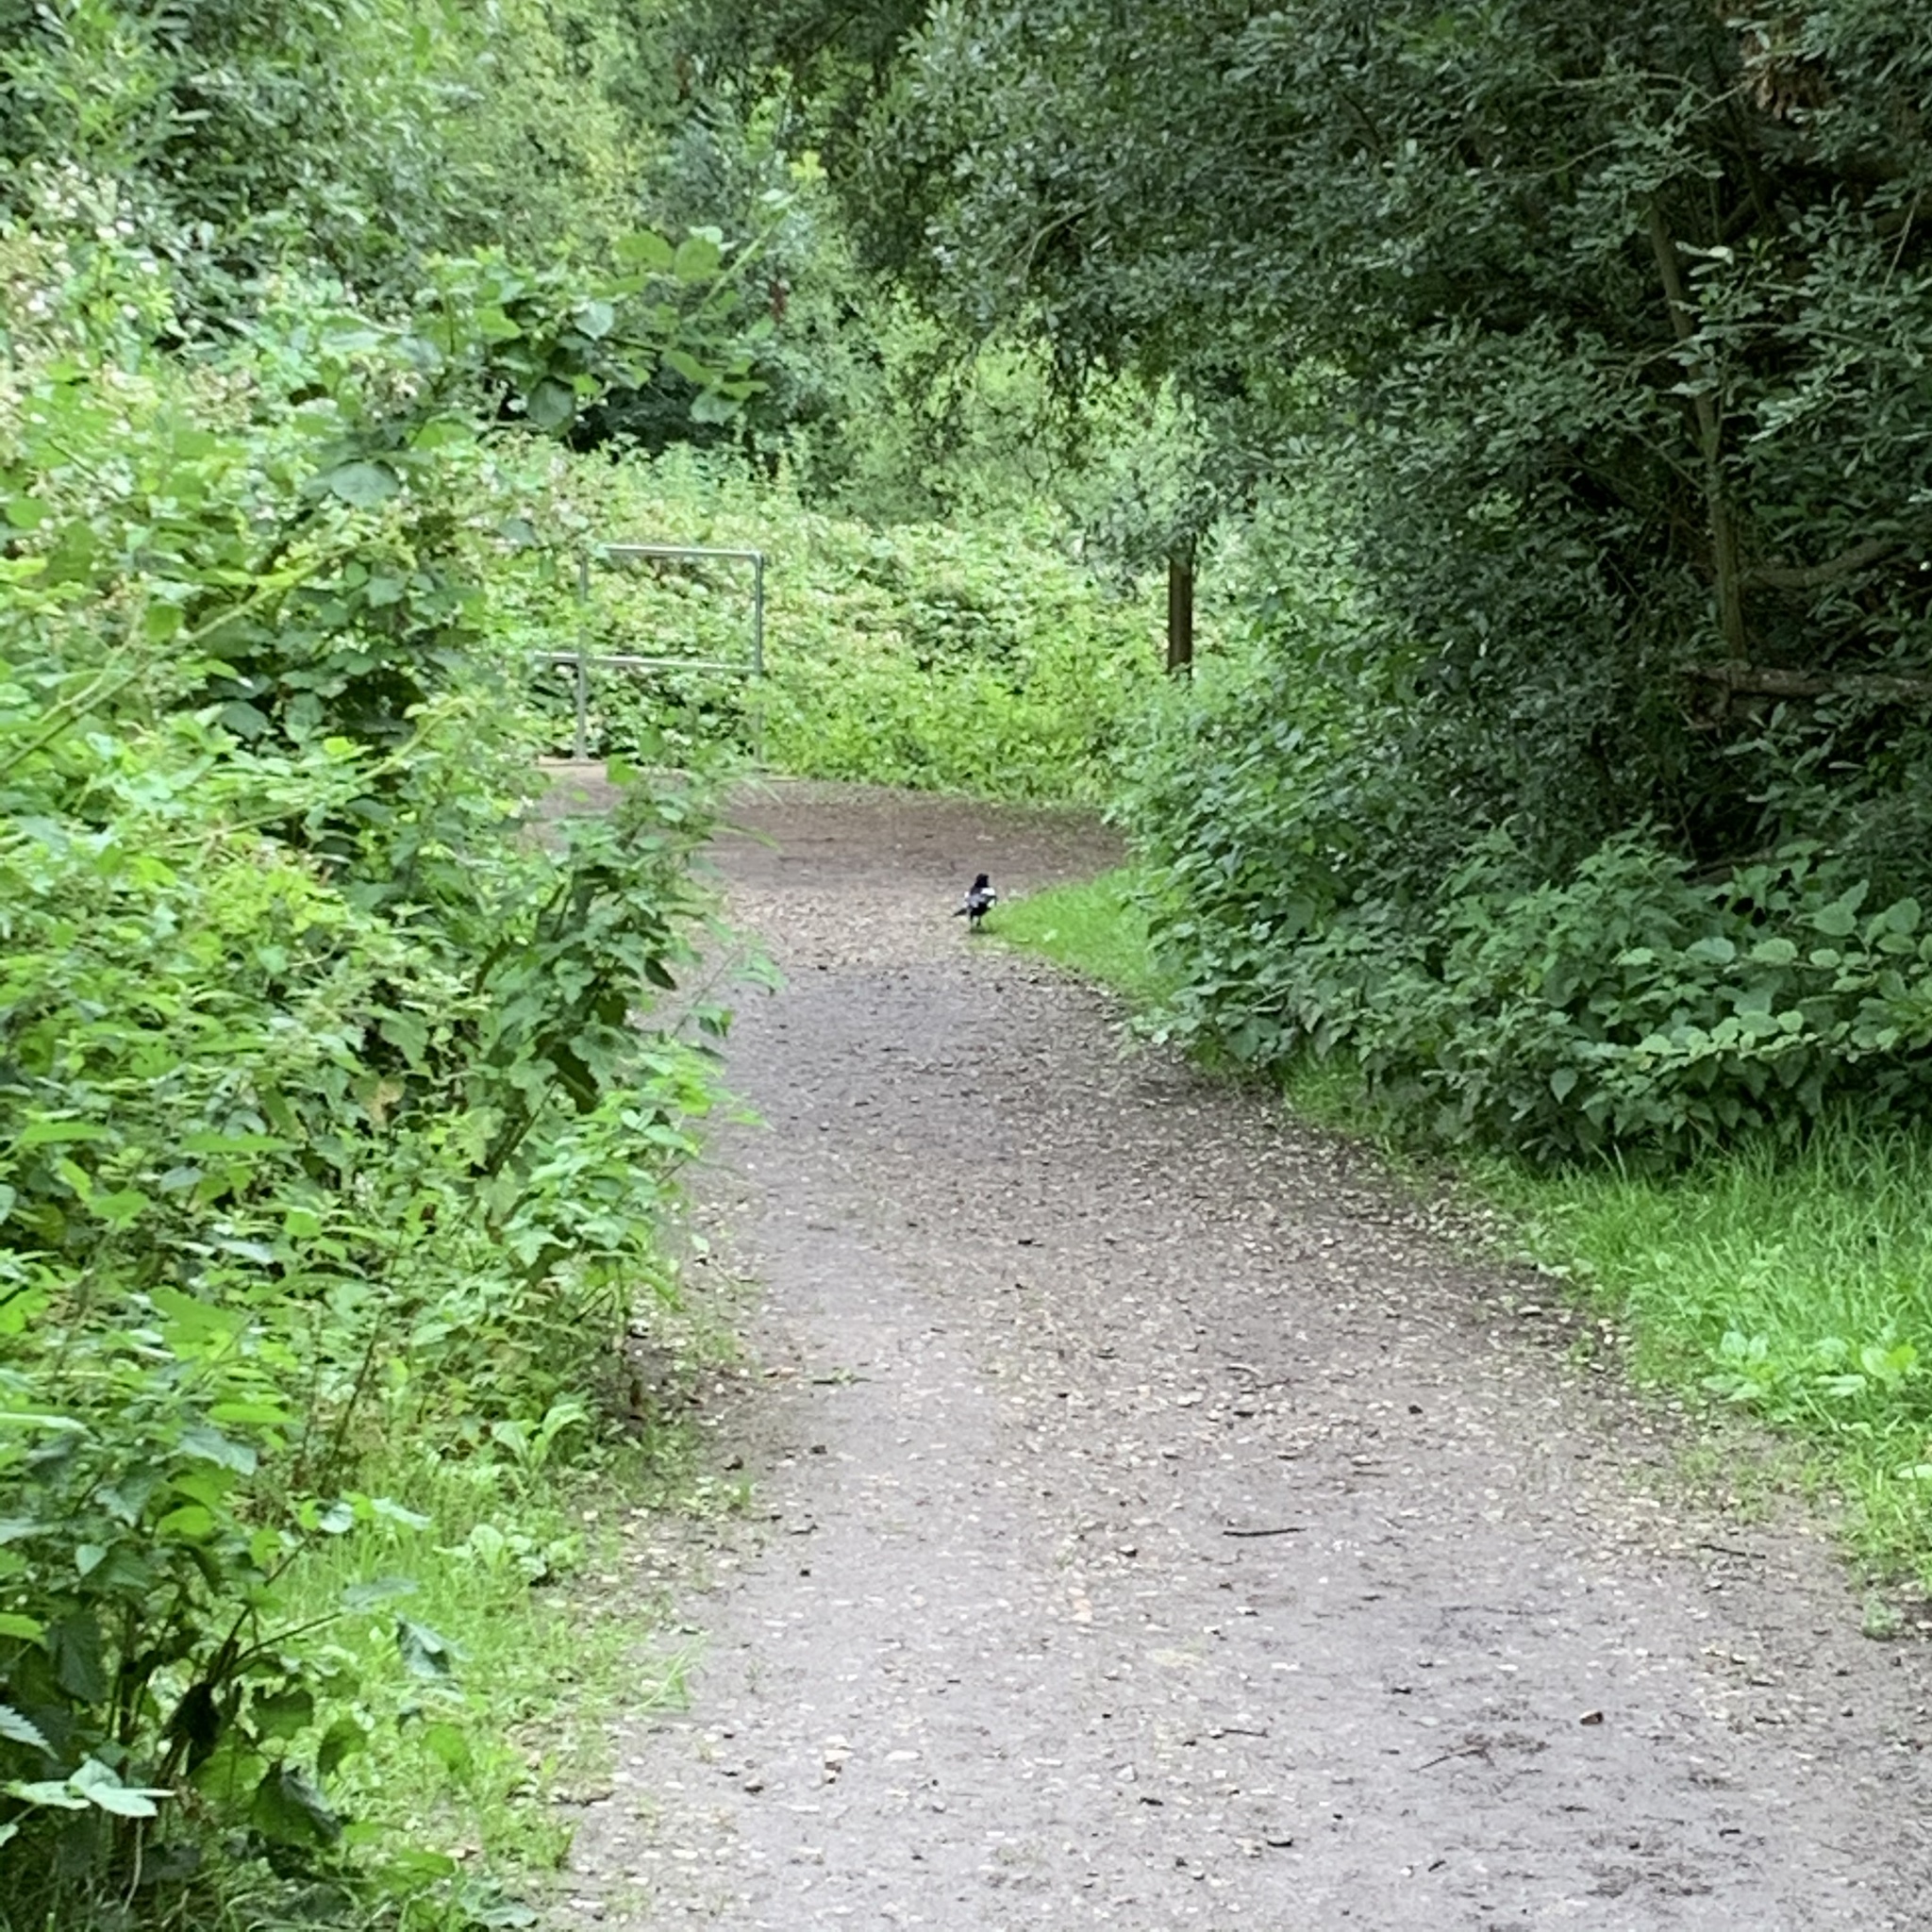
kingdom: Animalia
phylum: Chordata
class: Aves
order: Passeriformes
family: Corvidae
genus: Pica
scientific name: Pica pica
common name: Eurasian magpie
